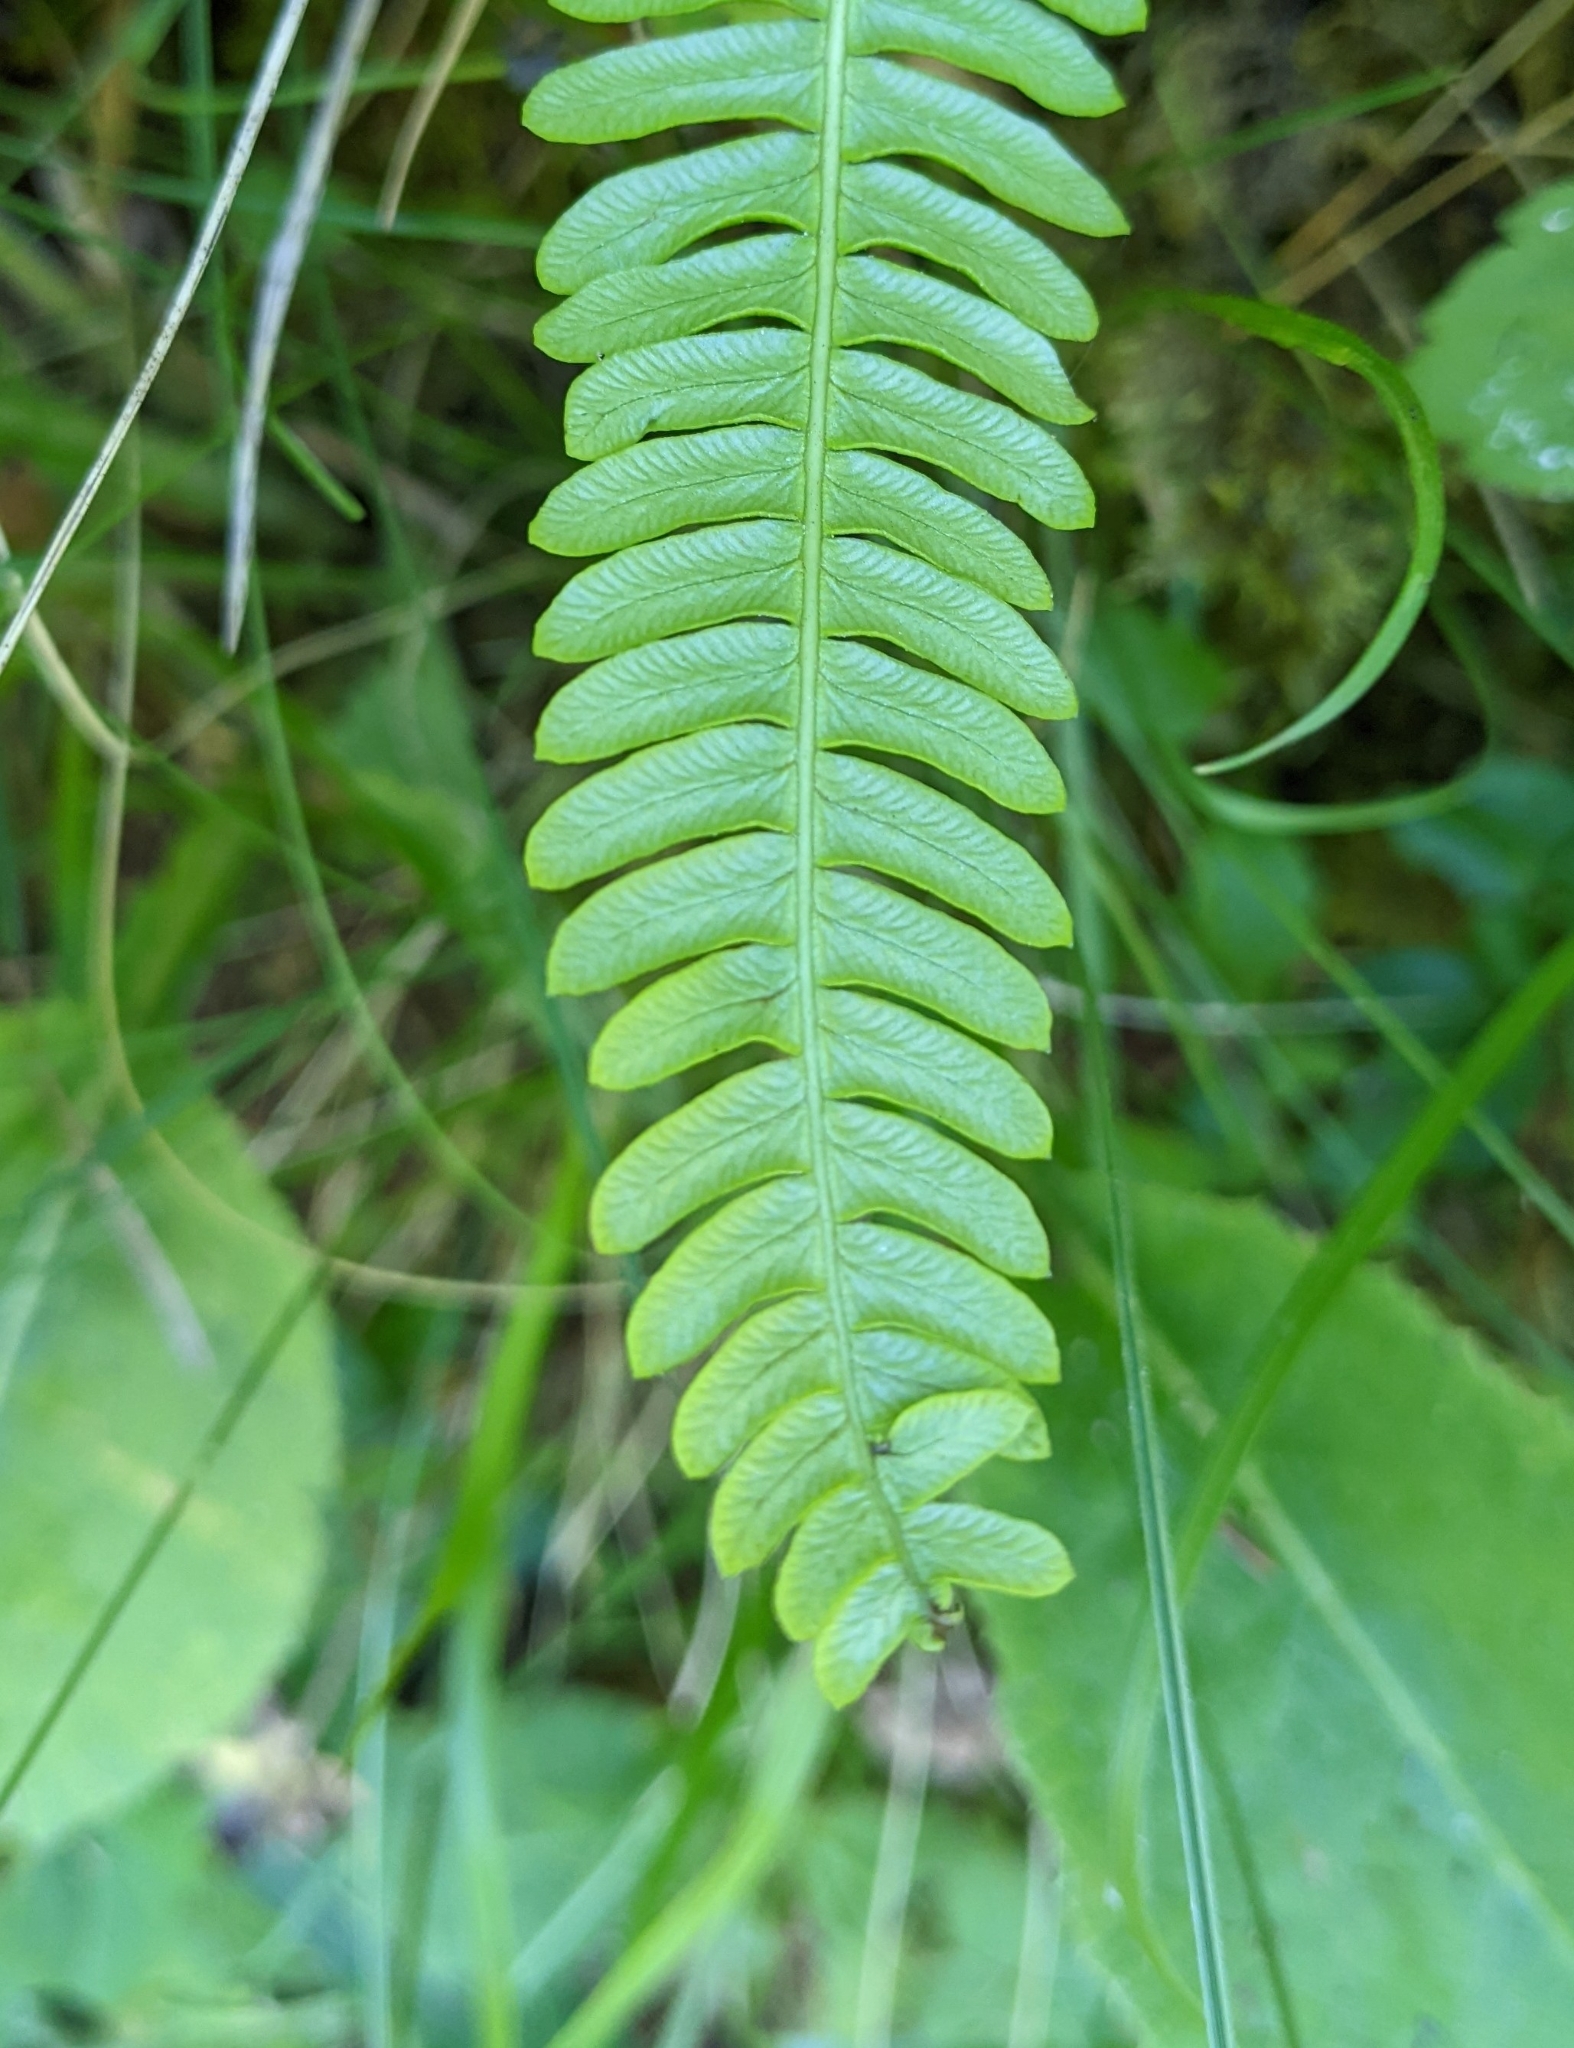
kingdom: Plantae
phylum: Tracheophyta
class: Polypodiopsida
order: Polypodiales
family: Blechnaceae
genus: Struthiopteris
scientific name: Struthiopteris spicant
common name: Deer fern
